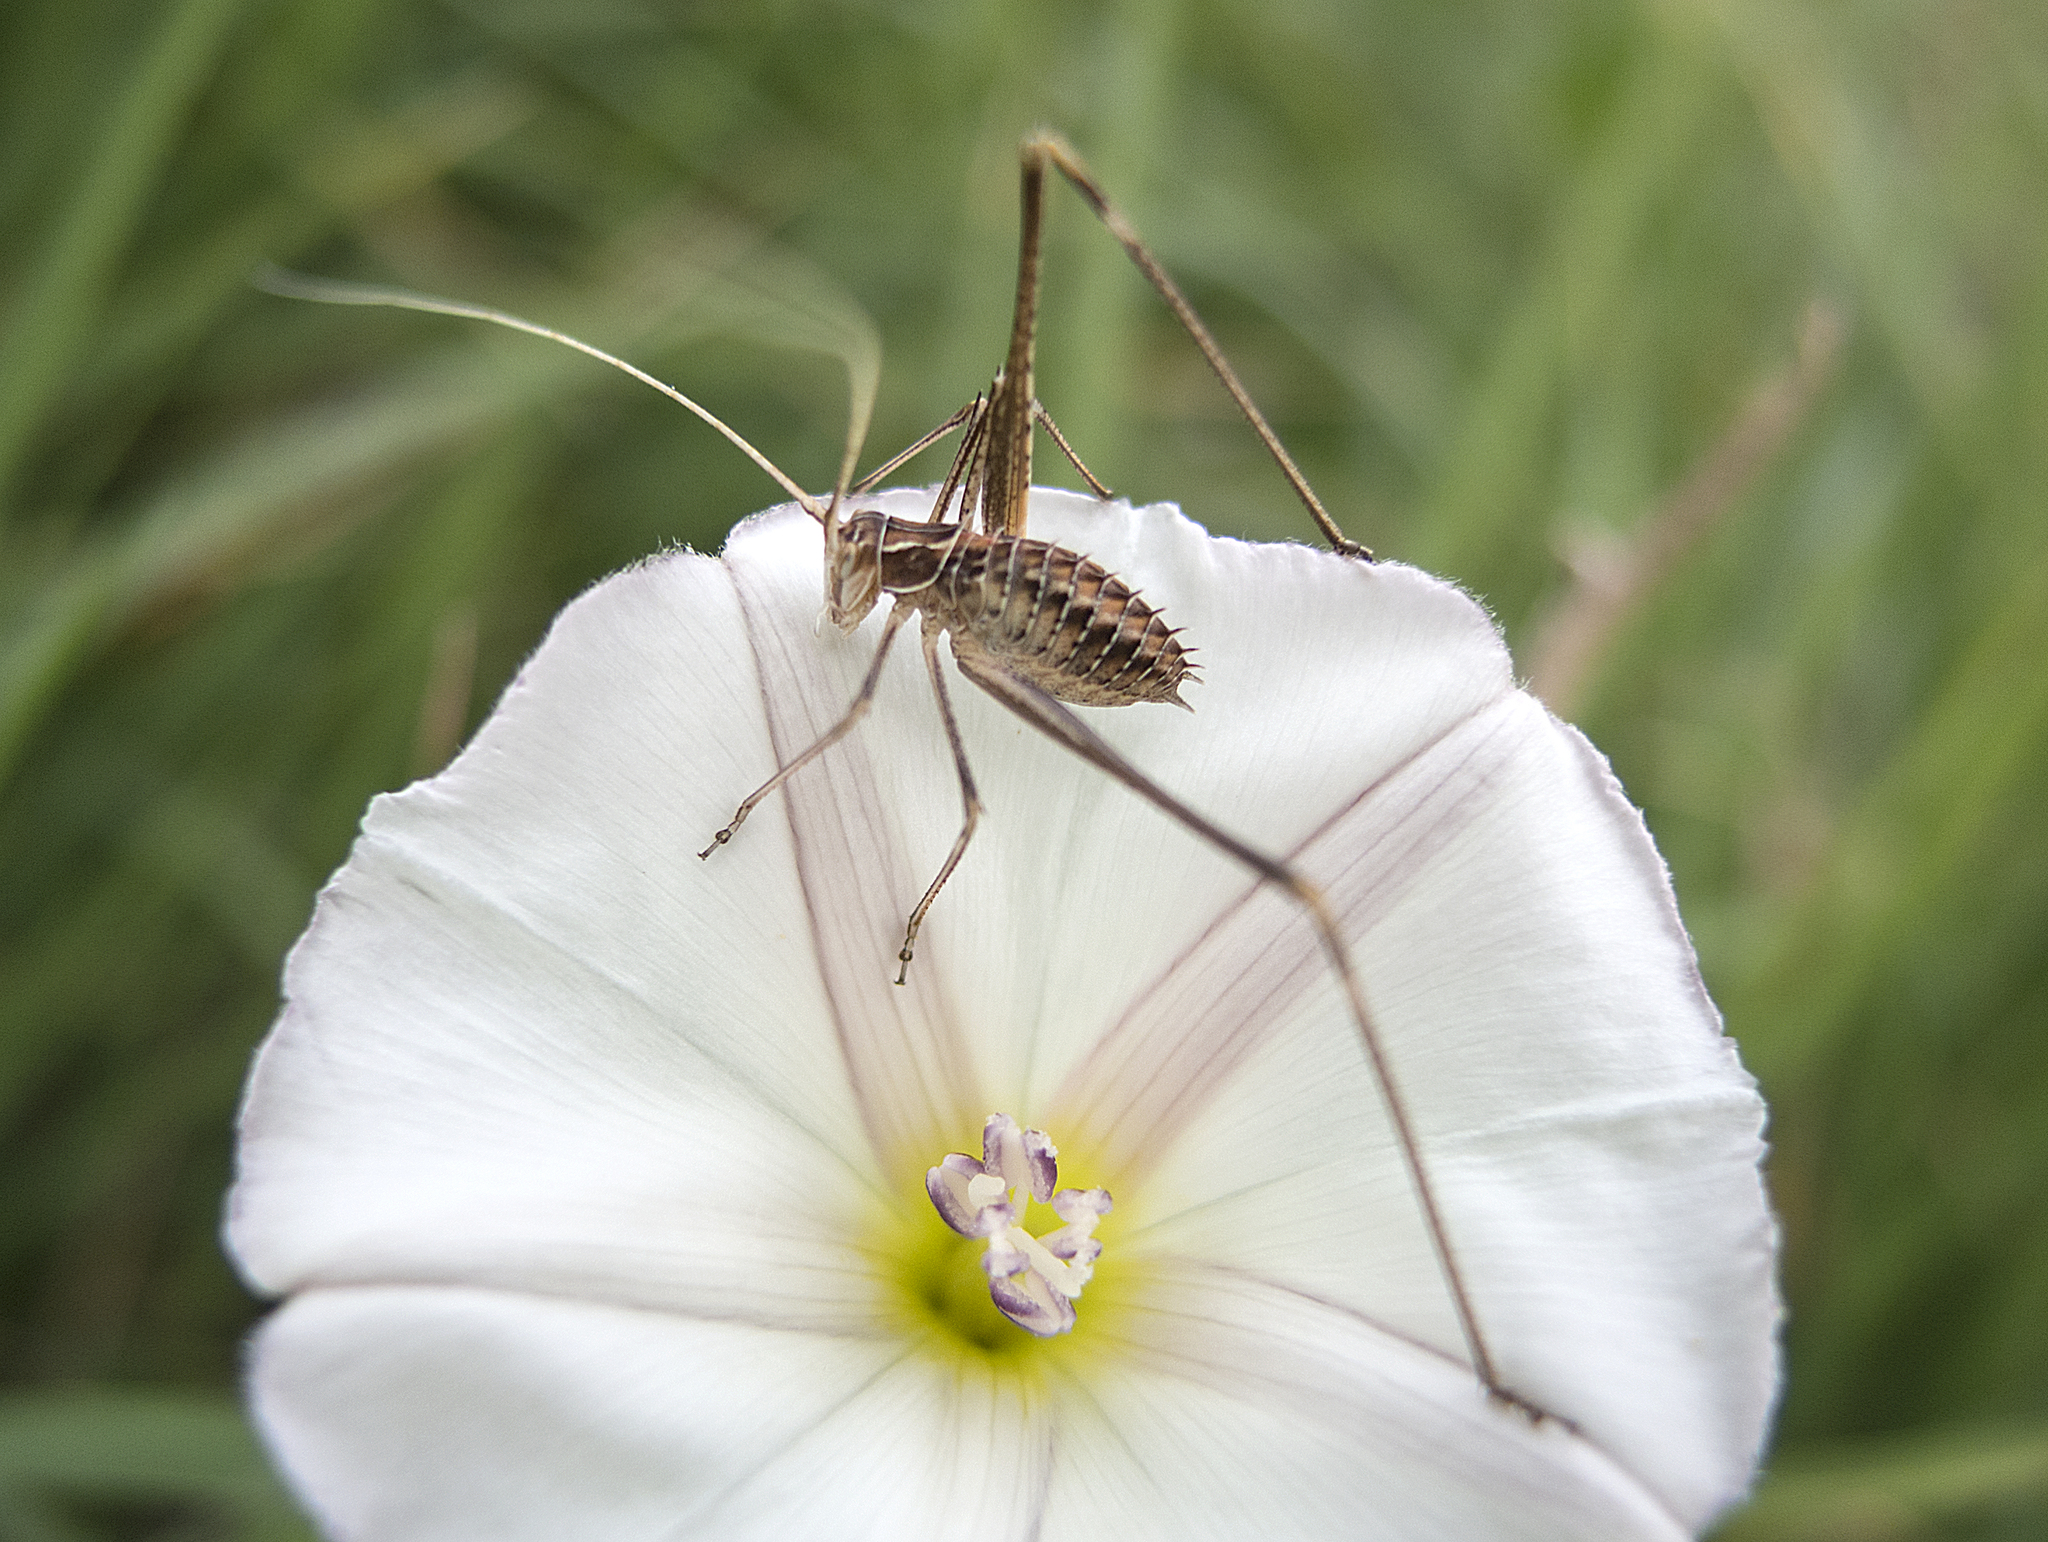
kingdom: Animalia
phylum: Arthropoda
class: Insecta
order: Orthoptera
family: Tettigoniidae
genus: Tylopsis
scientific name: Tylopsis lilifolia
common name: Lily bush-cricket
